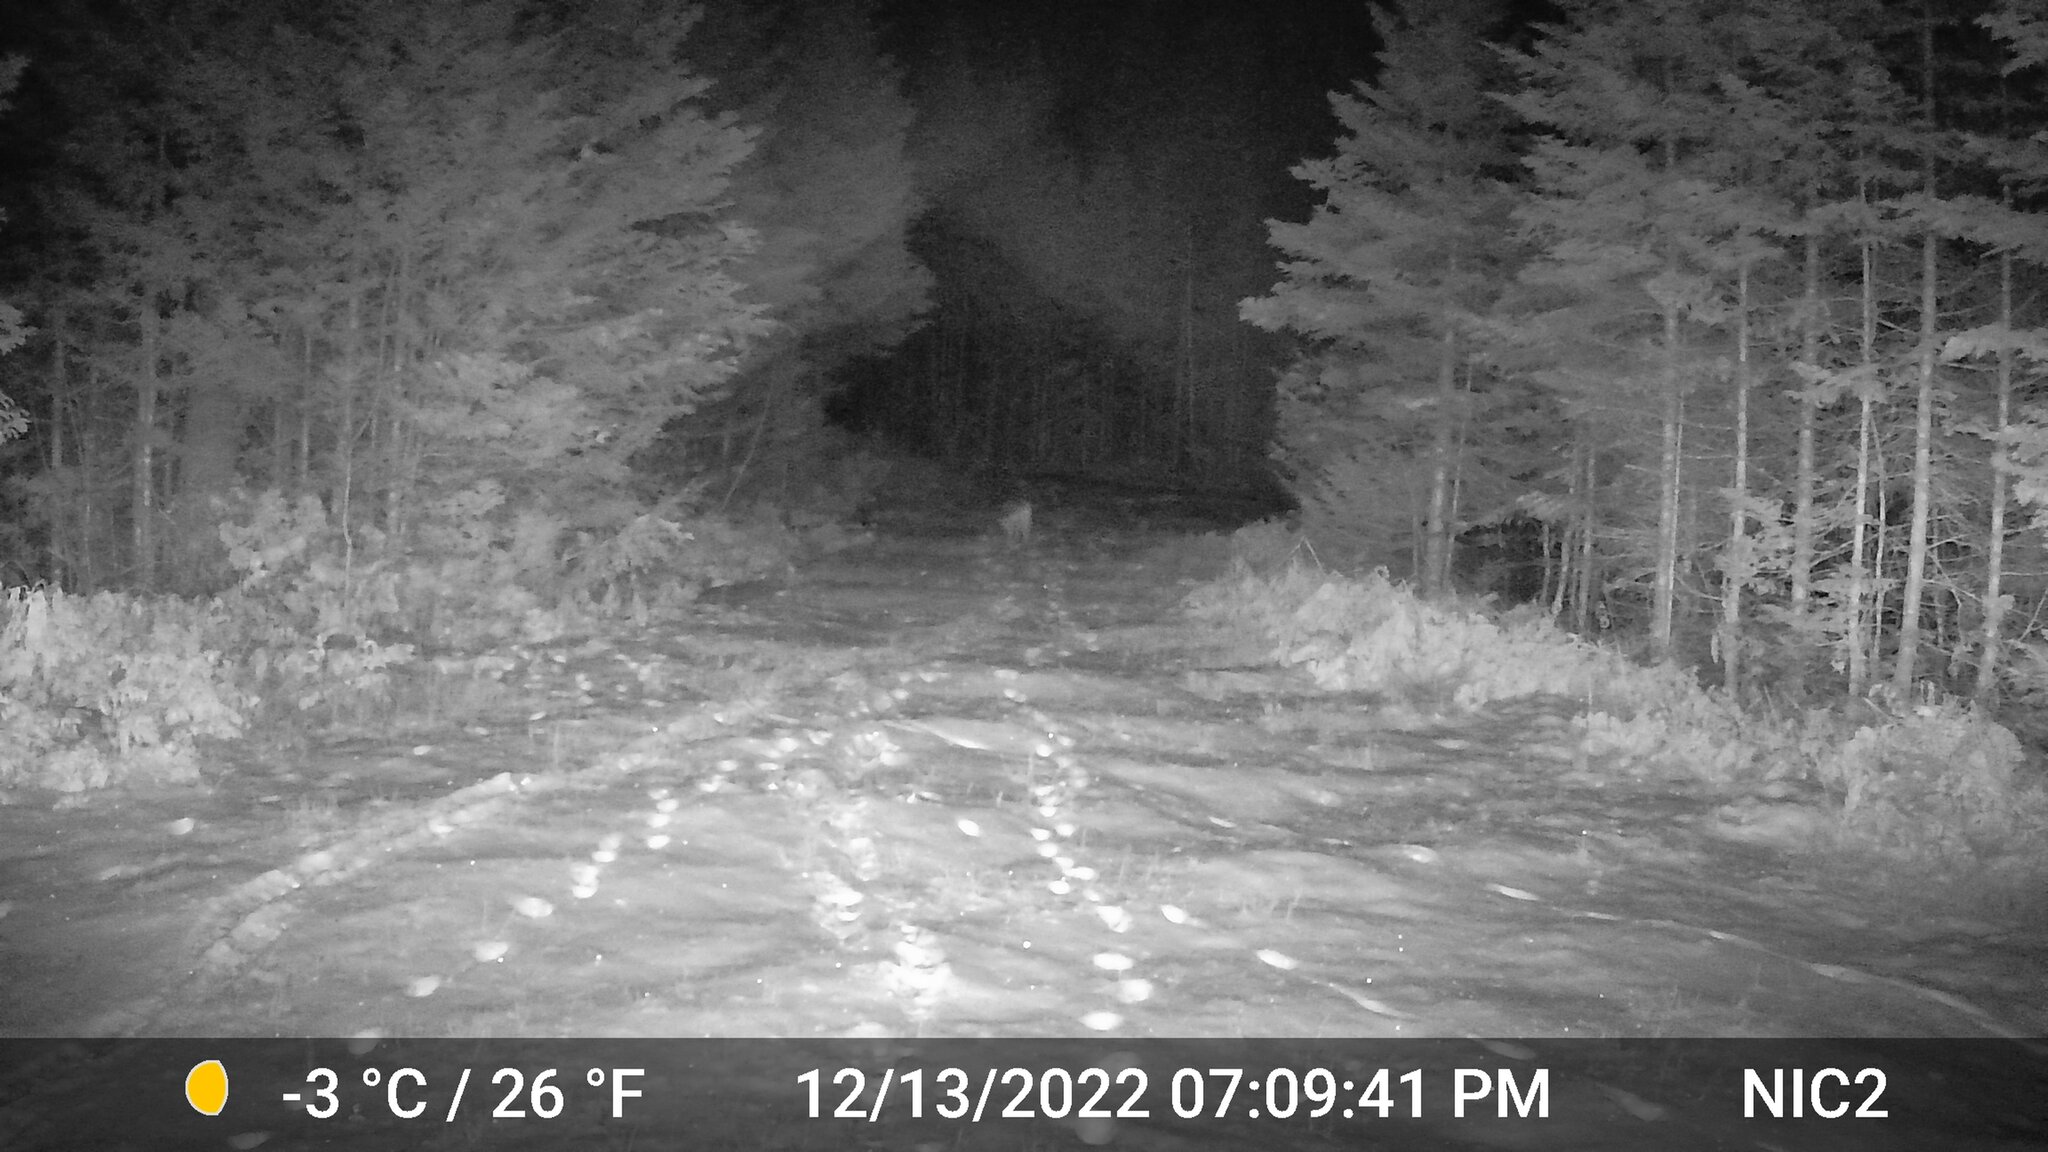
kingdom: Animalia
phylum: Chordata
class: Mammalia
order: Carnivora
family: Canidae
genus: Canis
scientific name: Canis latrans
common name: Coyote
